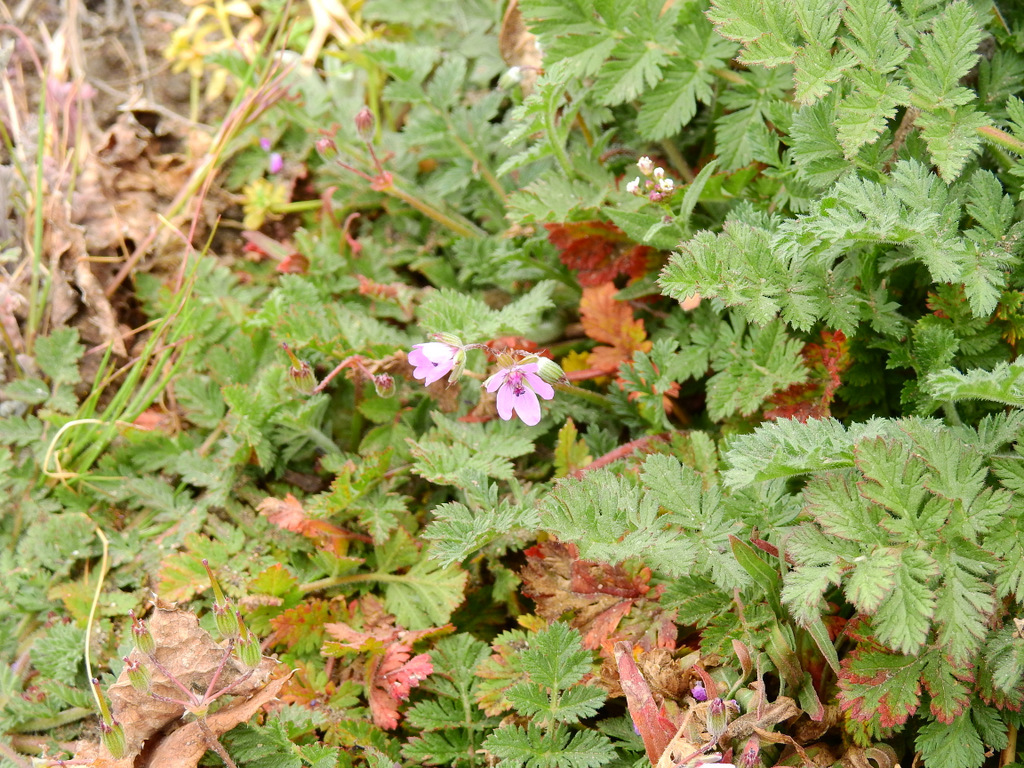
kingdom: Plantae
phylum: Tracheophyta
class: Magnoliopsida
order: Geraniales
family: Geraniaceae
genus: Erodium
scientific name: Erodium cicutarium
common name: Common stork's-bill
